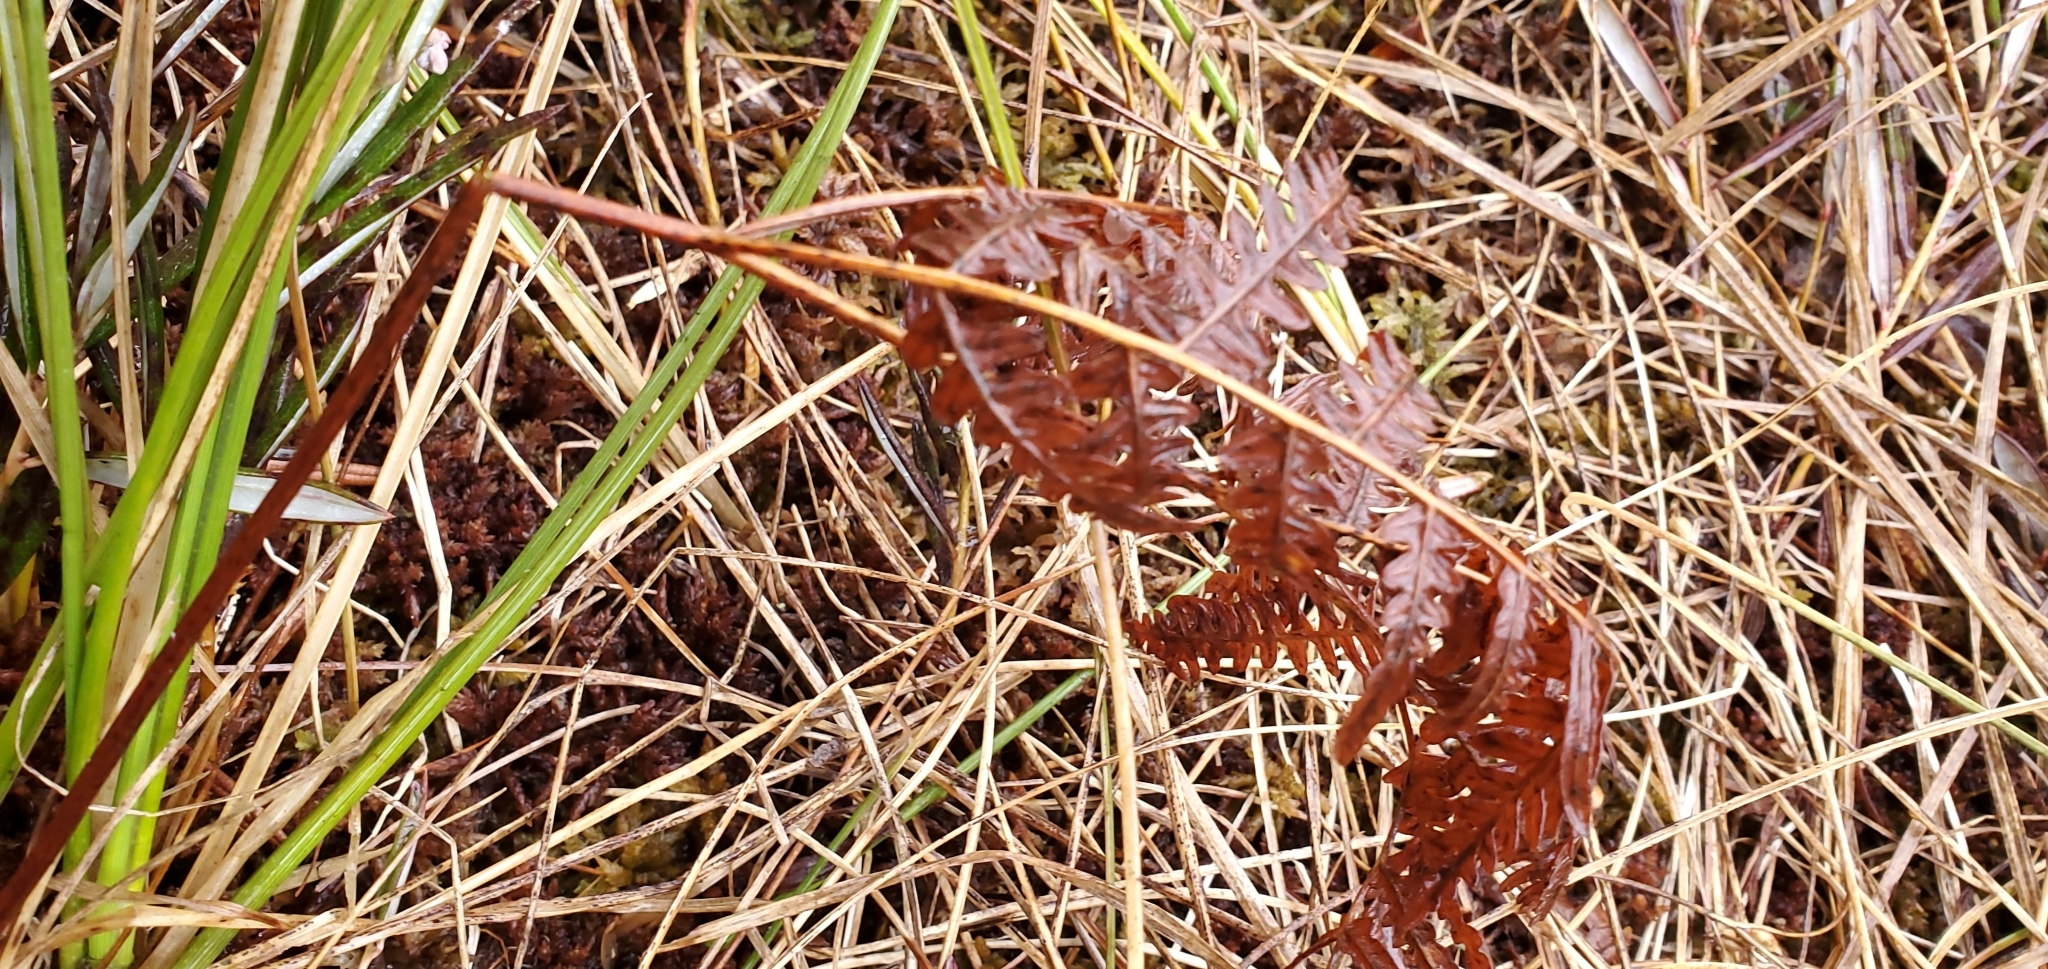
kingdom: Plantae
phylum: Tracheophyta
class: Polypodiopsida
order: Polypodiales
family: Dennstaedtiaceae
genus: Pteridium
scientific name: Pteridium aquilinum
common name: Bracken
